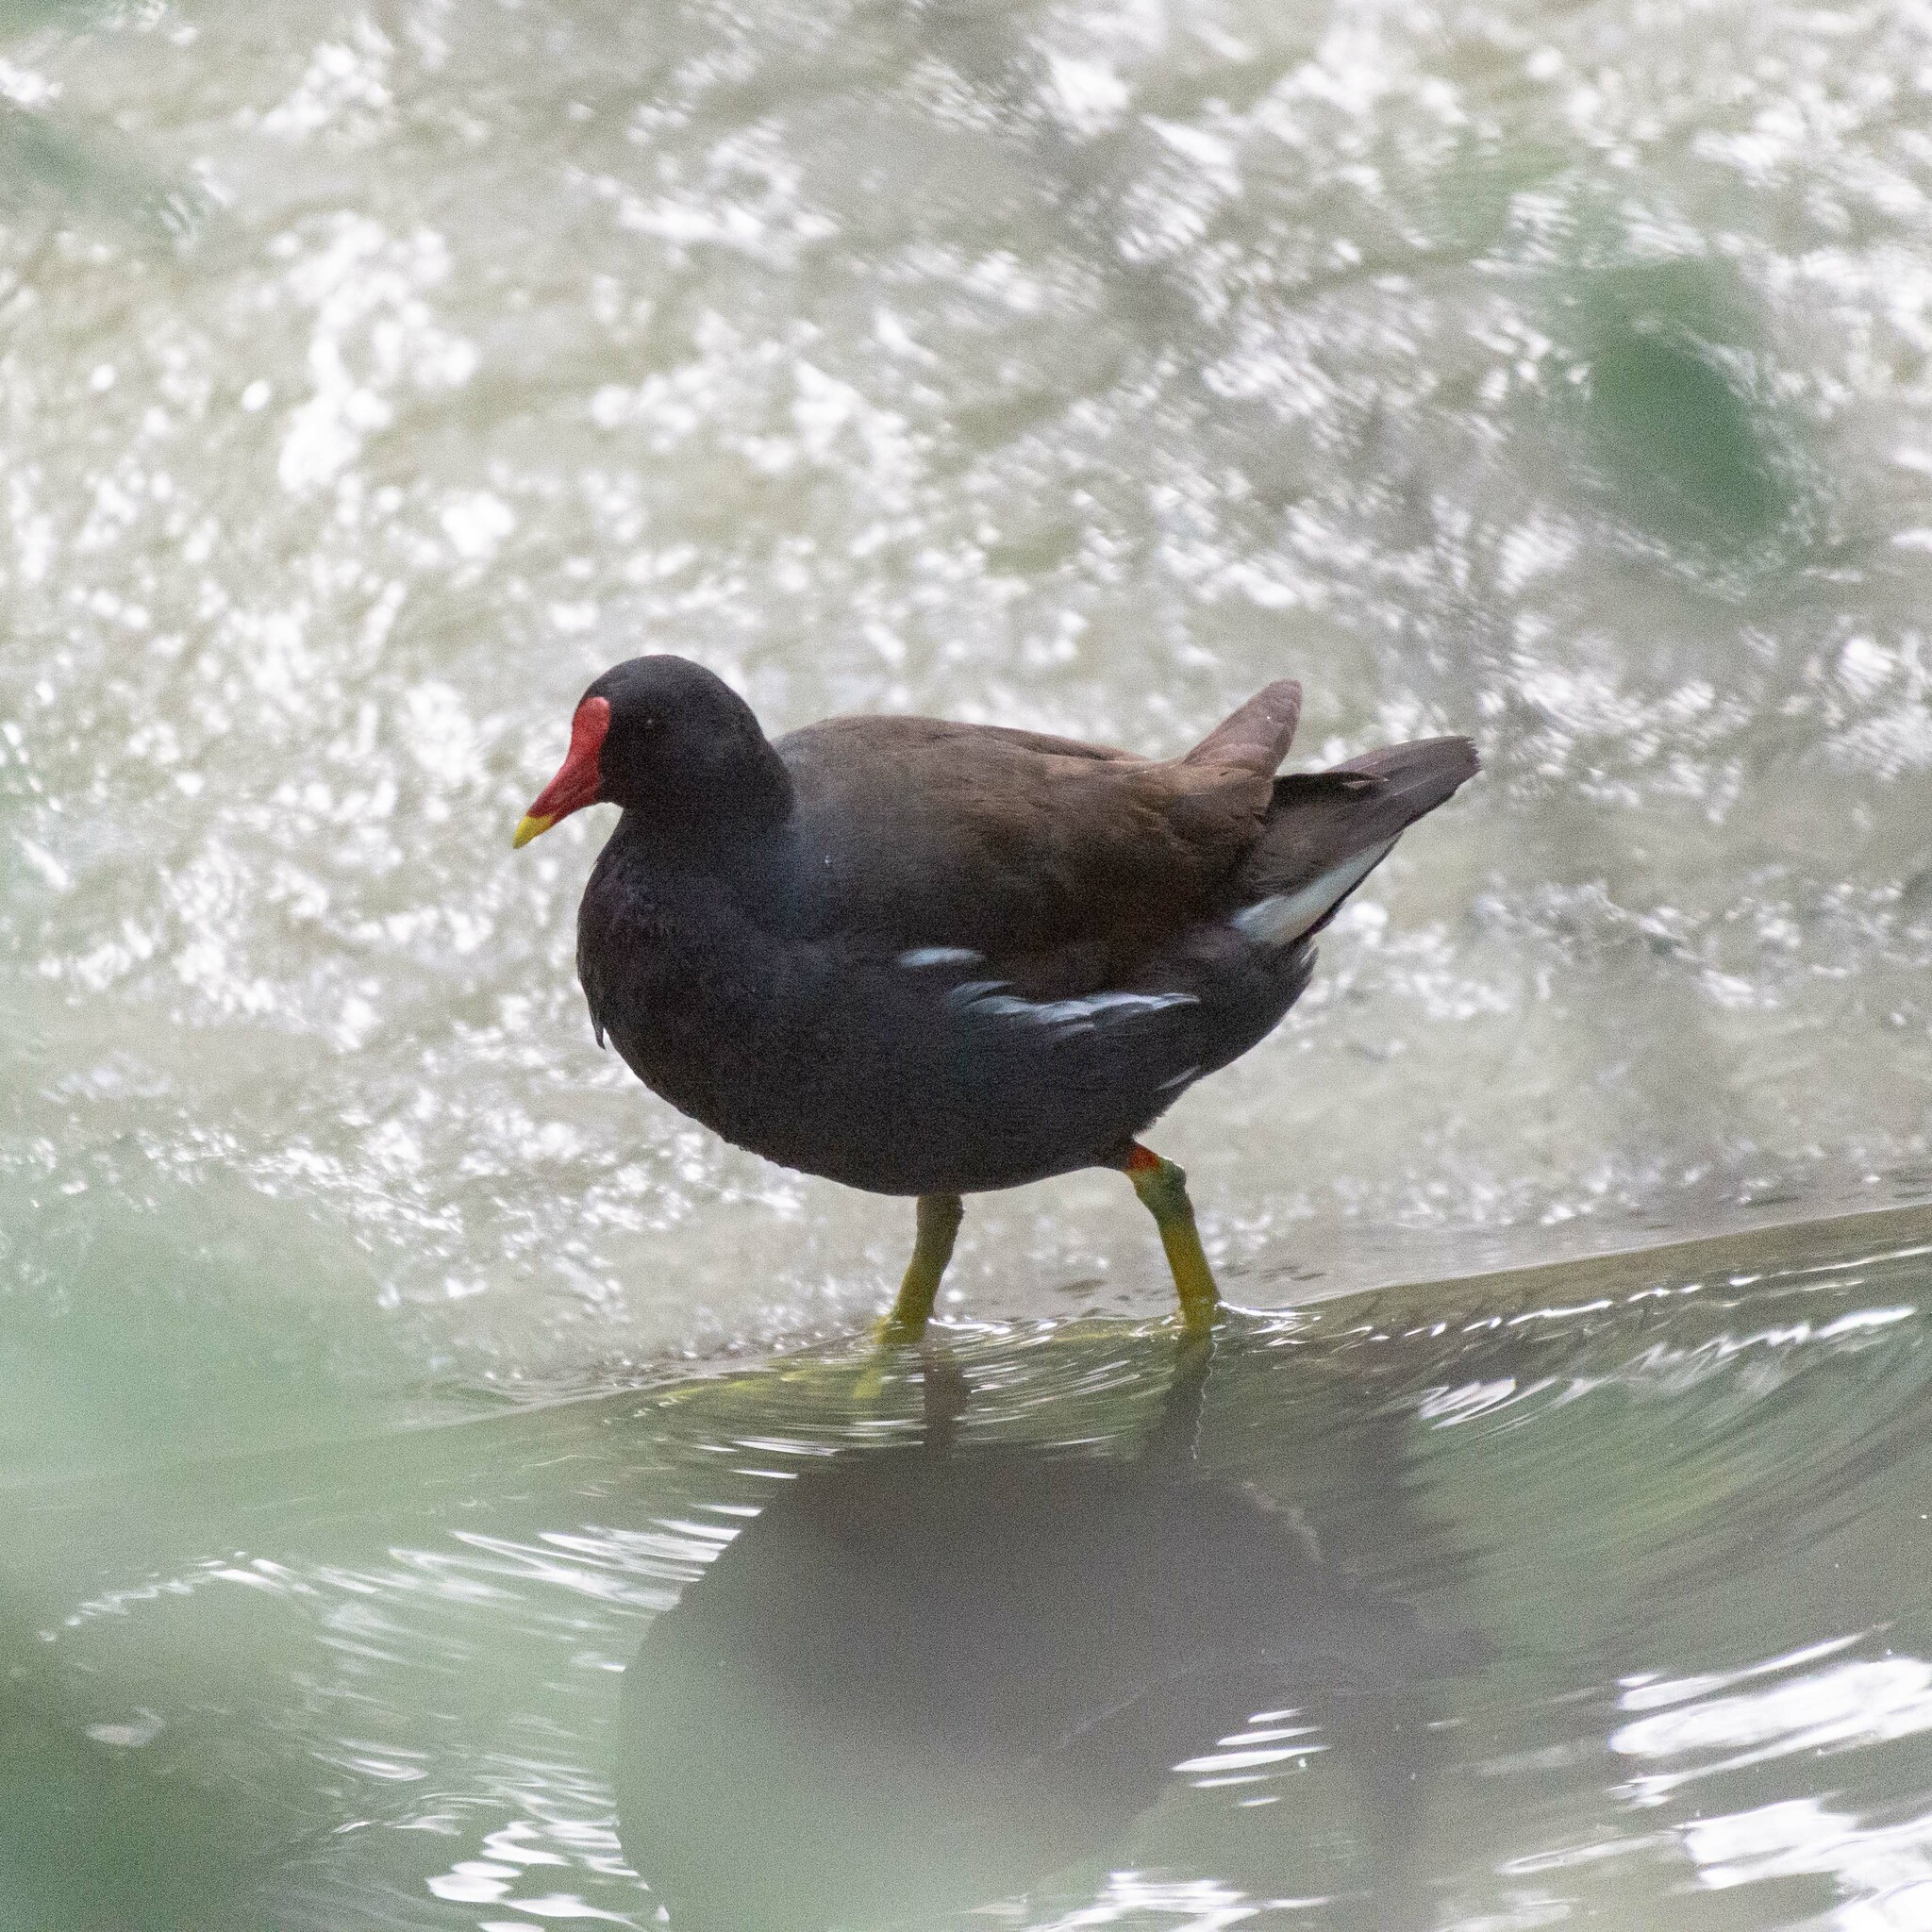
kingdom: Animalia
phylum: Chordata
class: Aves
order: Gruiformes
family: Rallidae
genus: Gallinula
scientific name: Gallinula chloropus
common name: Common moorhen
